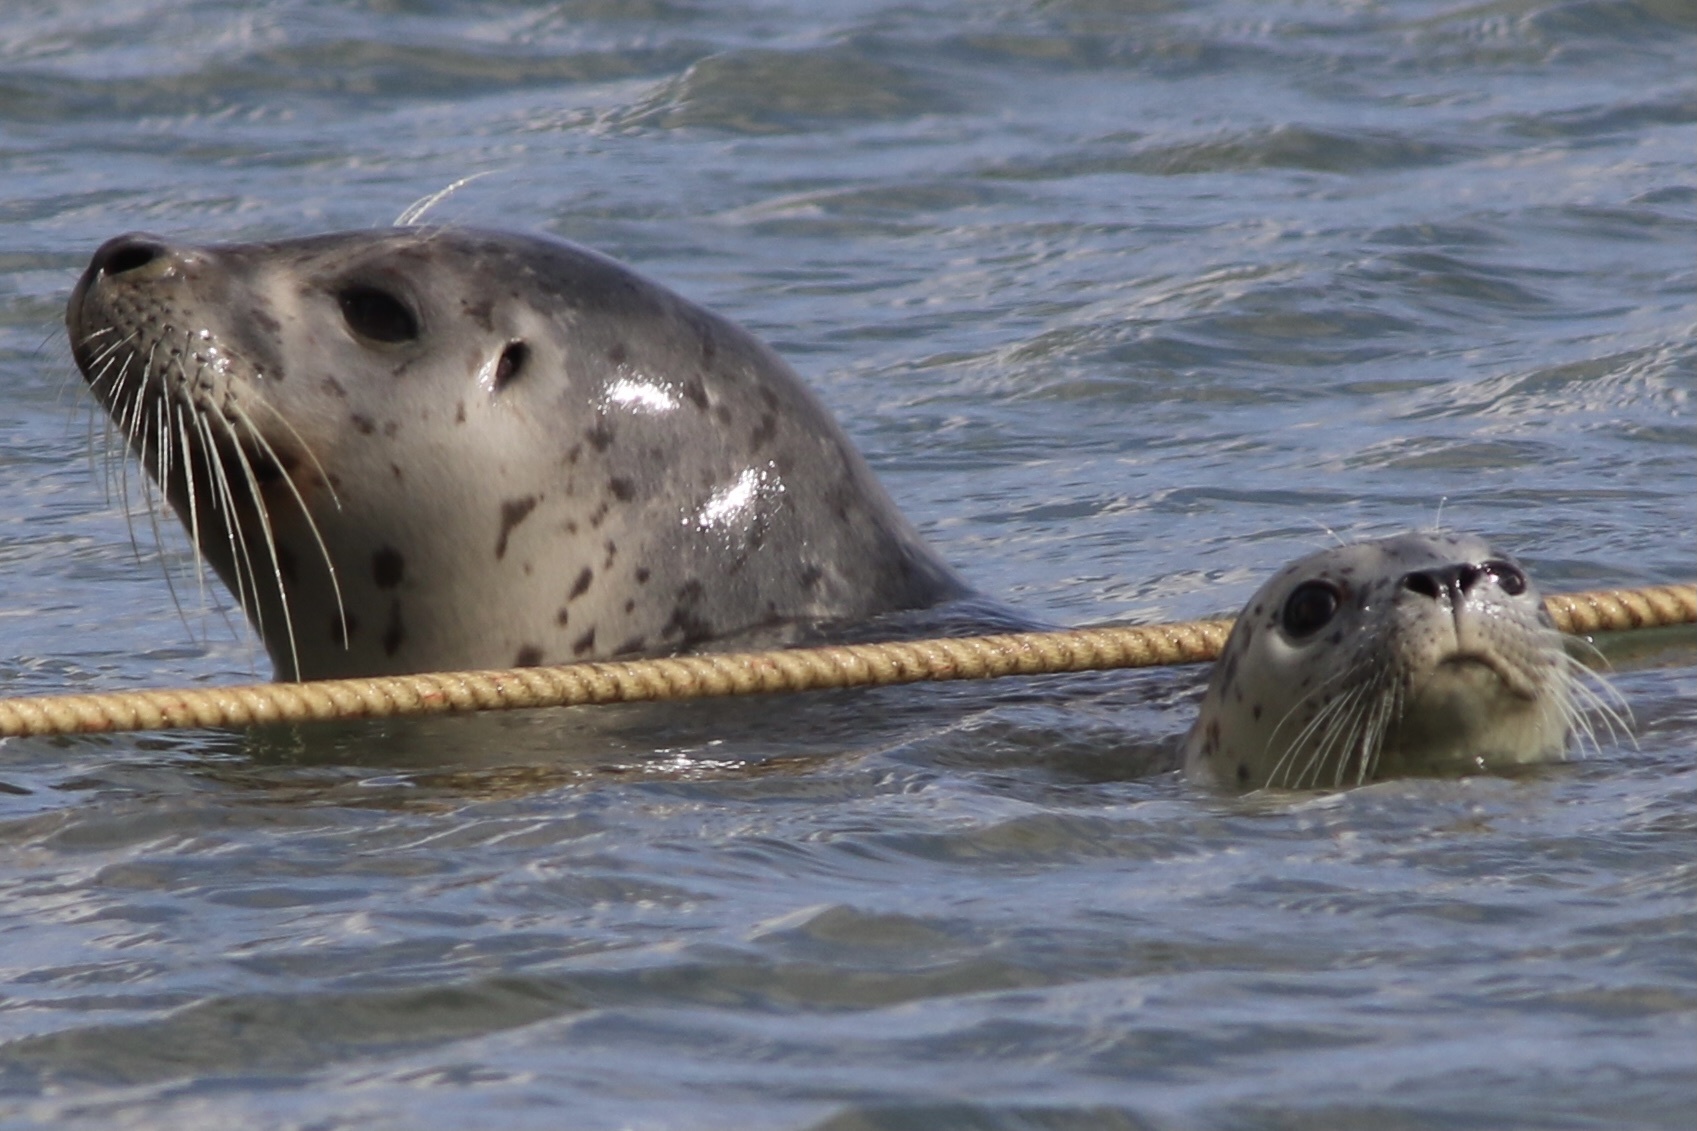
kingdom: Animalia
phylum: Chordata
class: Mammalia
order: Carnivora
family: Phocidae
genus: Phoca
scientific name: Phoca vitulina
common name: Harbor seal
